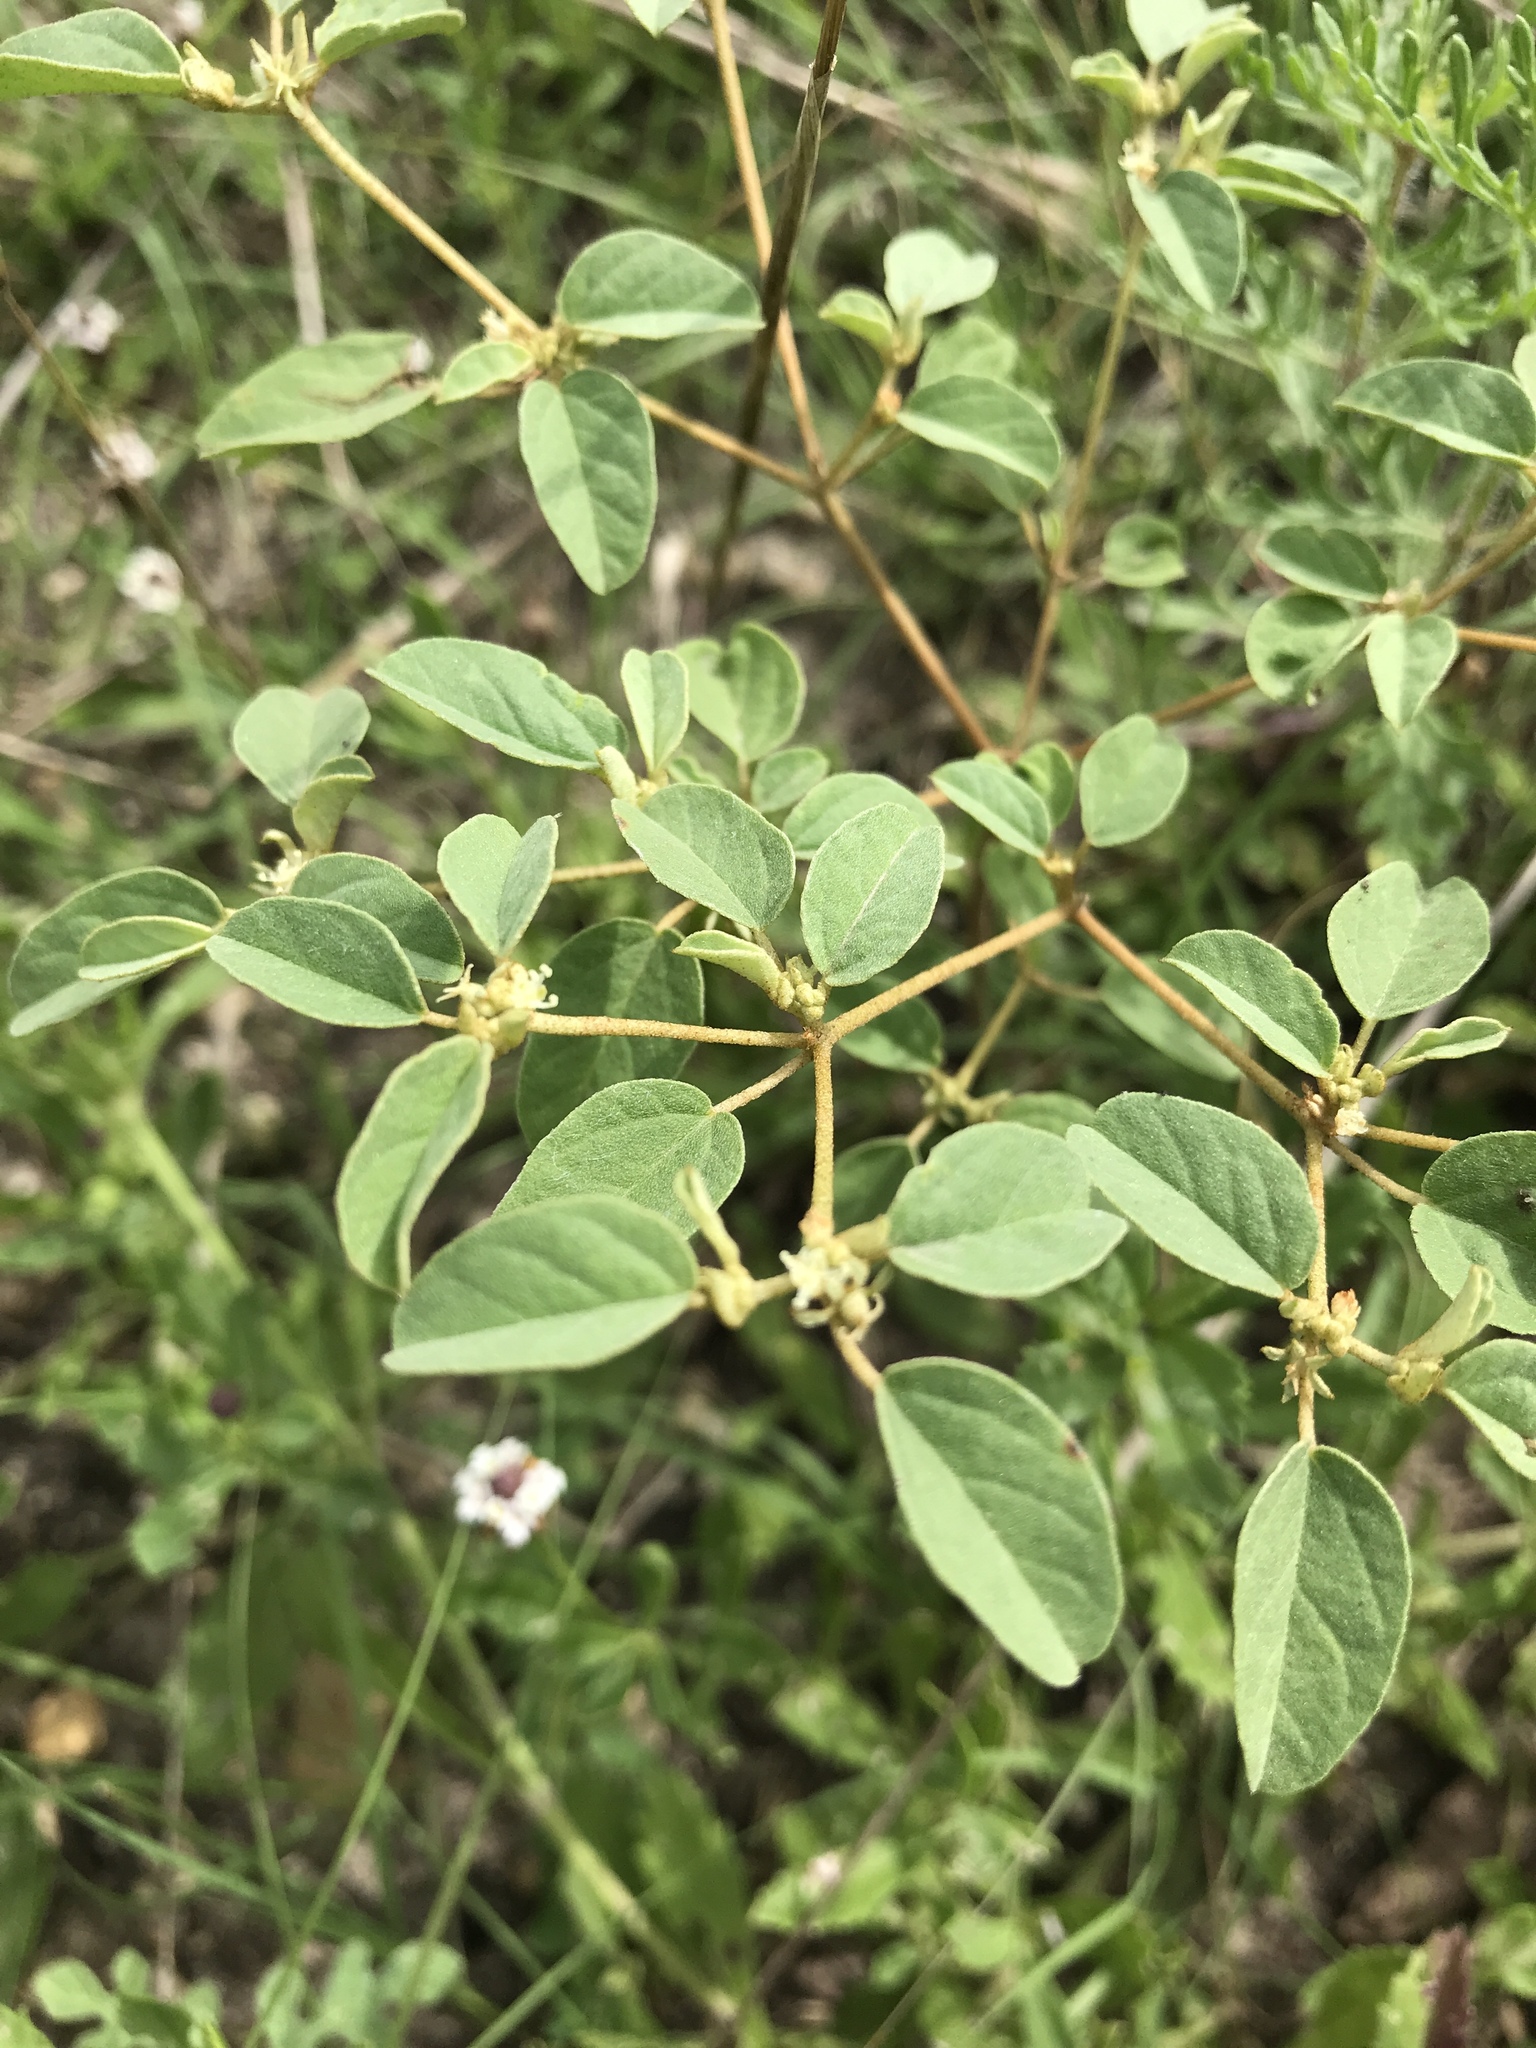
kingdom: Plantae
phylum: Tracheophyta
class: Magnoliopsida
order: Malpighiales
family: Euphorbiaceae
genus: Croton
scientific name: Croton monanthogynus
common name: One-seed croton
